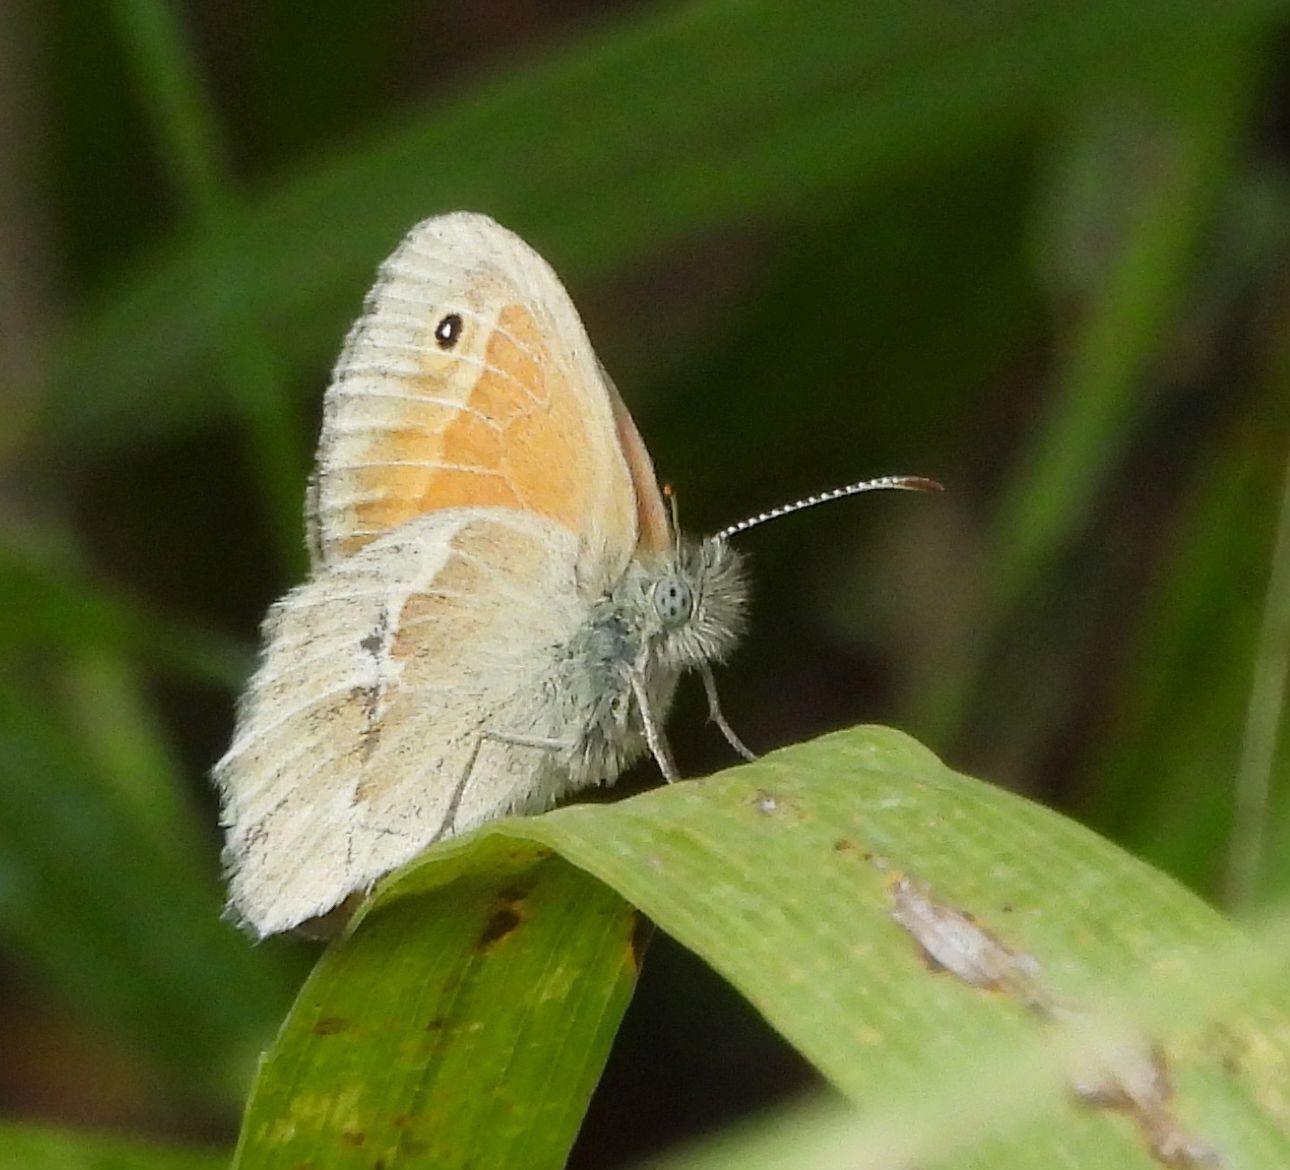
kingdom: Animalia
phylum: Arthropoda
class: Insecta
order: Lepidoptera
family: Nymphalidae
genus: Coenonympha
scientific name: Coenonympha california
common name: Common ringlet
